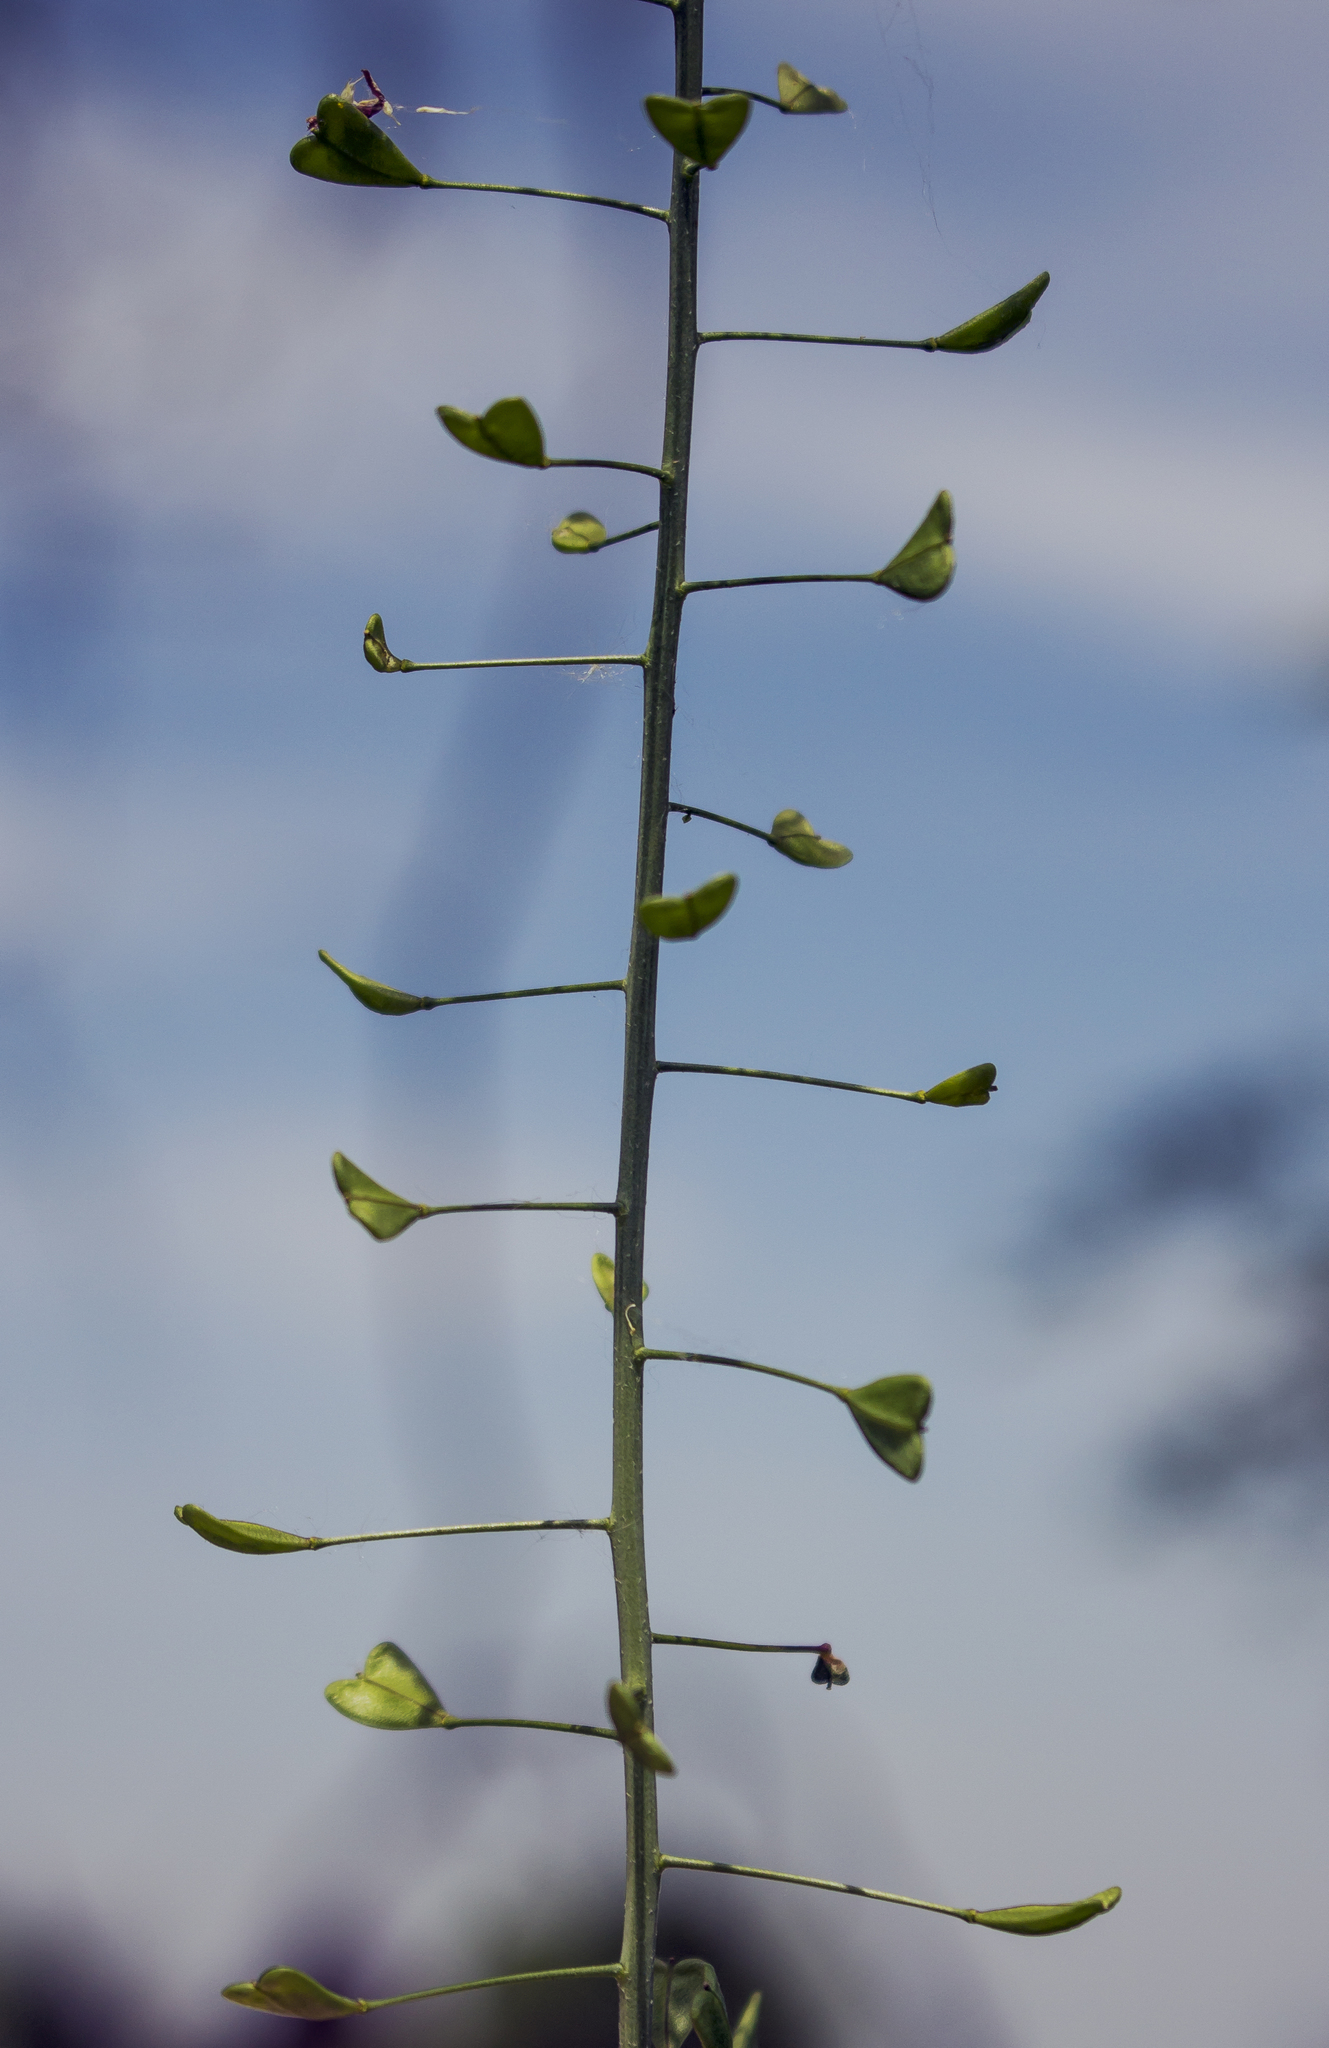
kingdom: Plantae
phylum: Tracheophyta
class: Magnoliopsida
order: Brassicales
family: Brassicaceae
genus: Capsella
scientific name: Capsella bursa-pastoris
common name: Shepherd's purse
